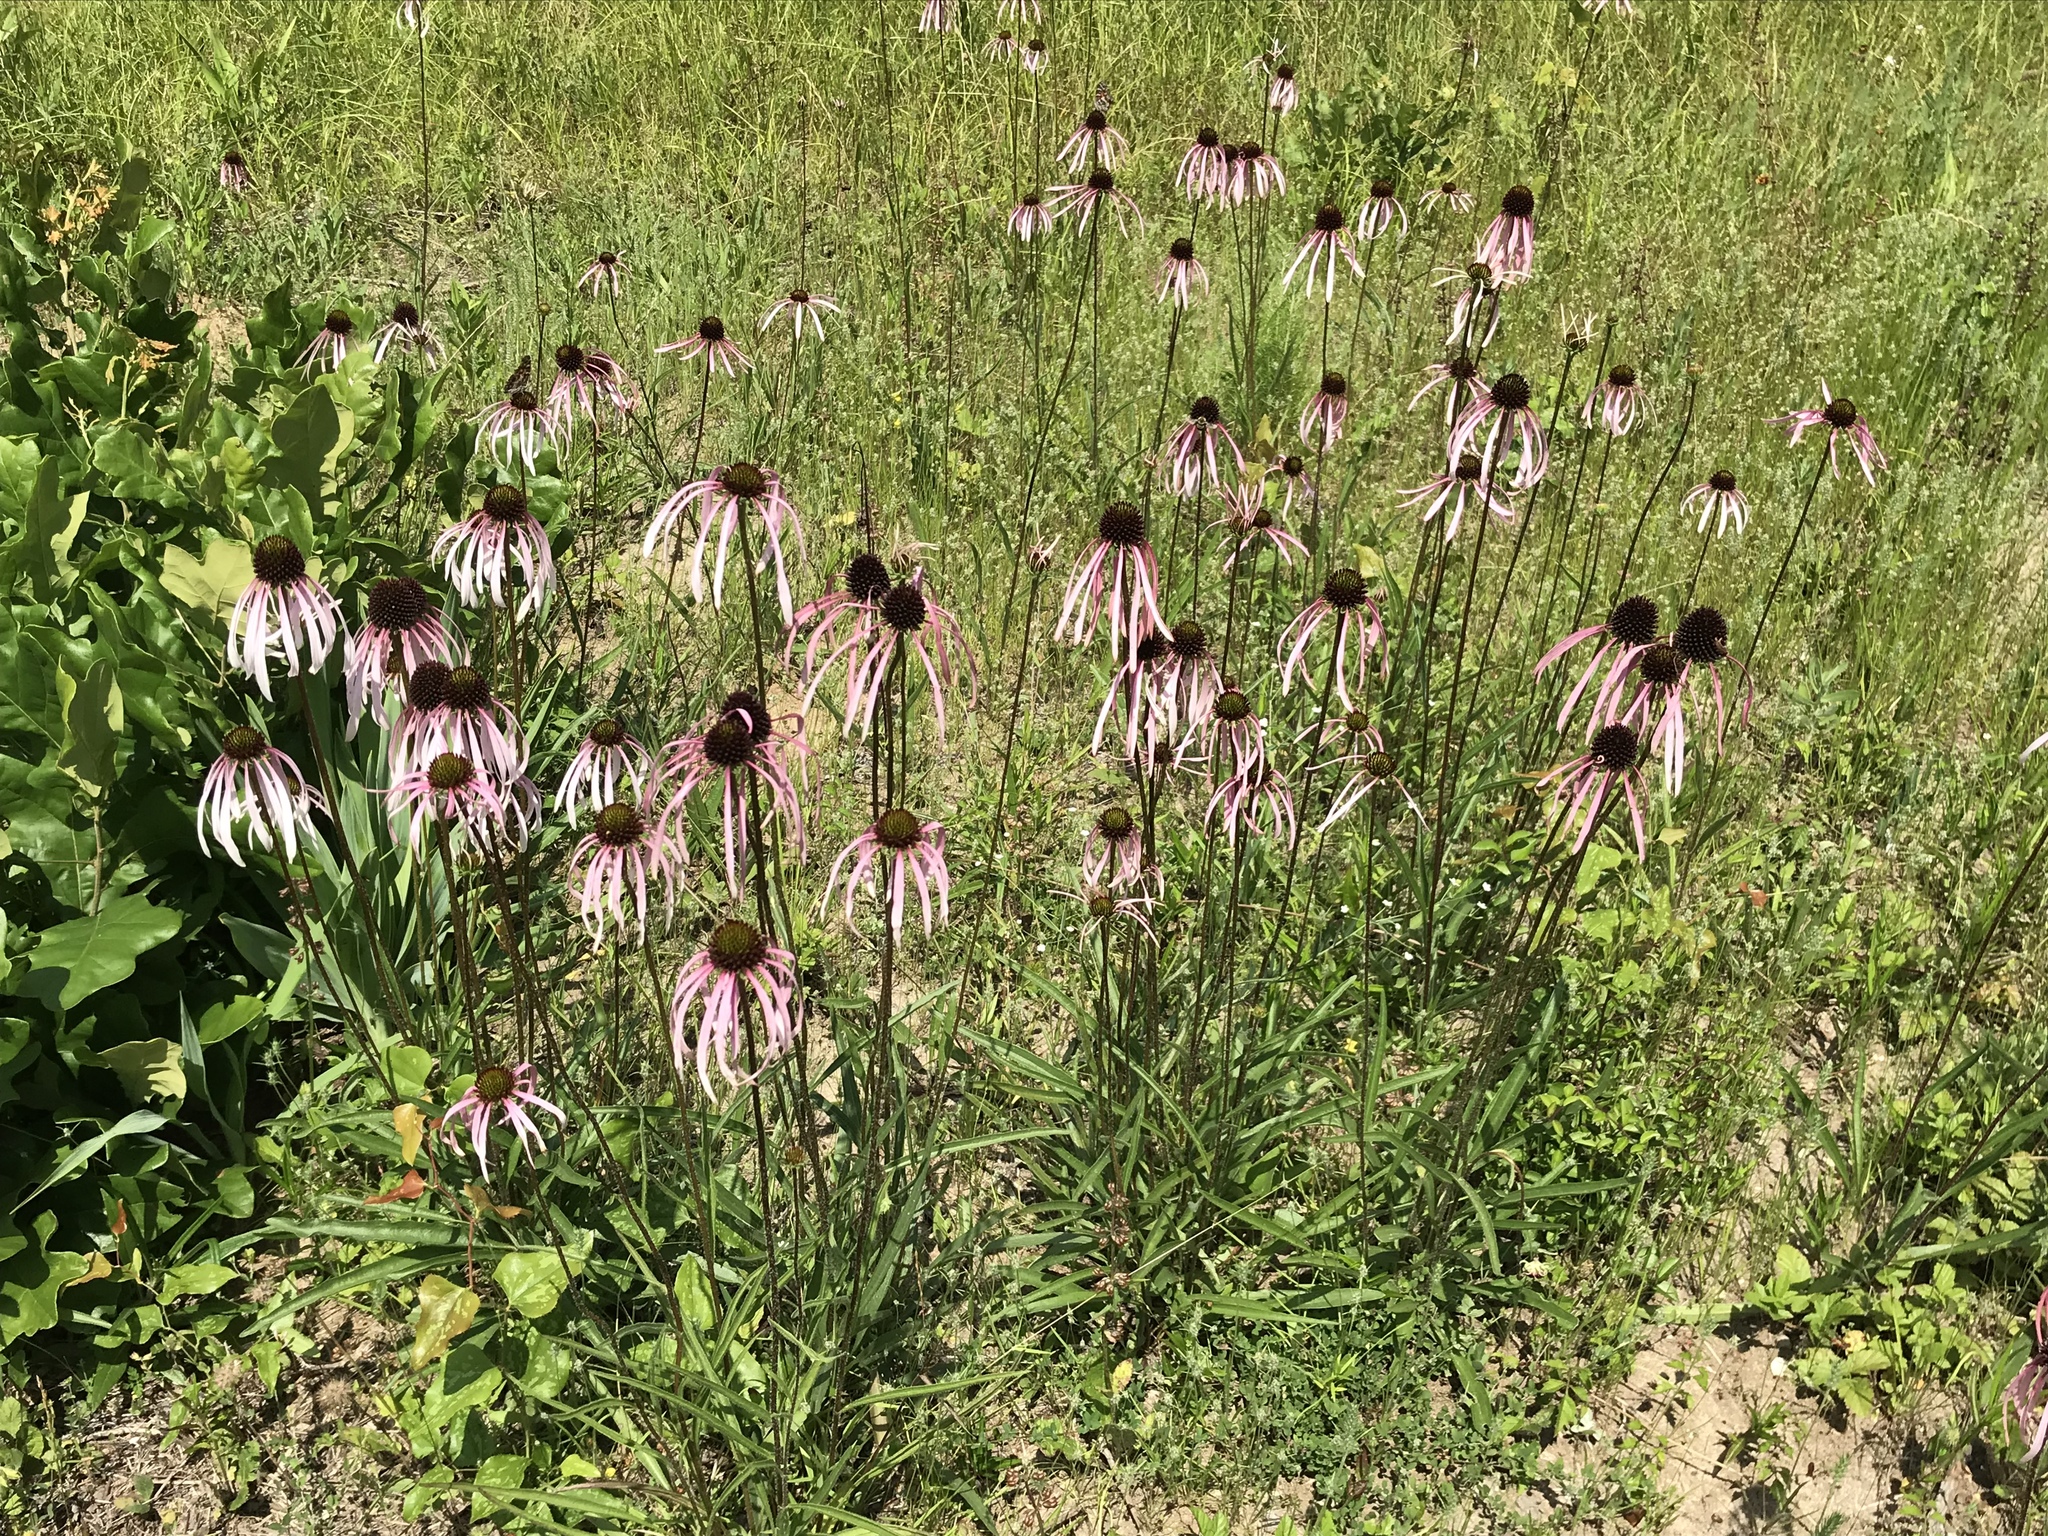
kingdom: Plantae
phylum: Tracheophyta
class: Magnoliopsida
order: Asterales
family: Asteraceae
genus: Echinacea
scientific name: Echinacea sanguinea
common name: Sanguine purple-coneflower
